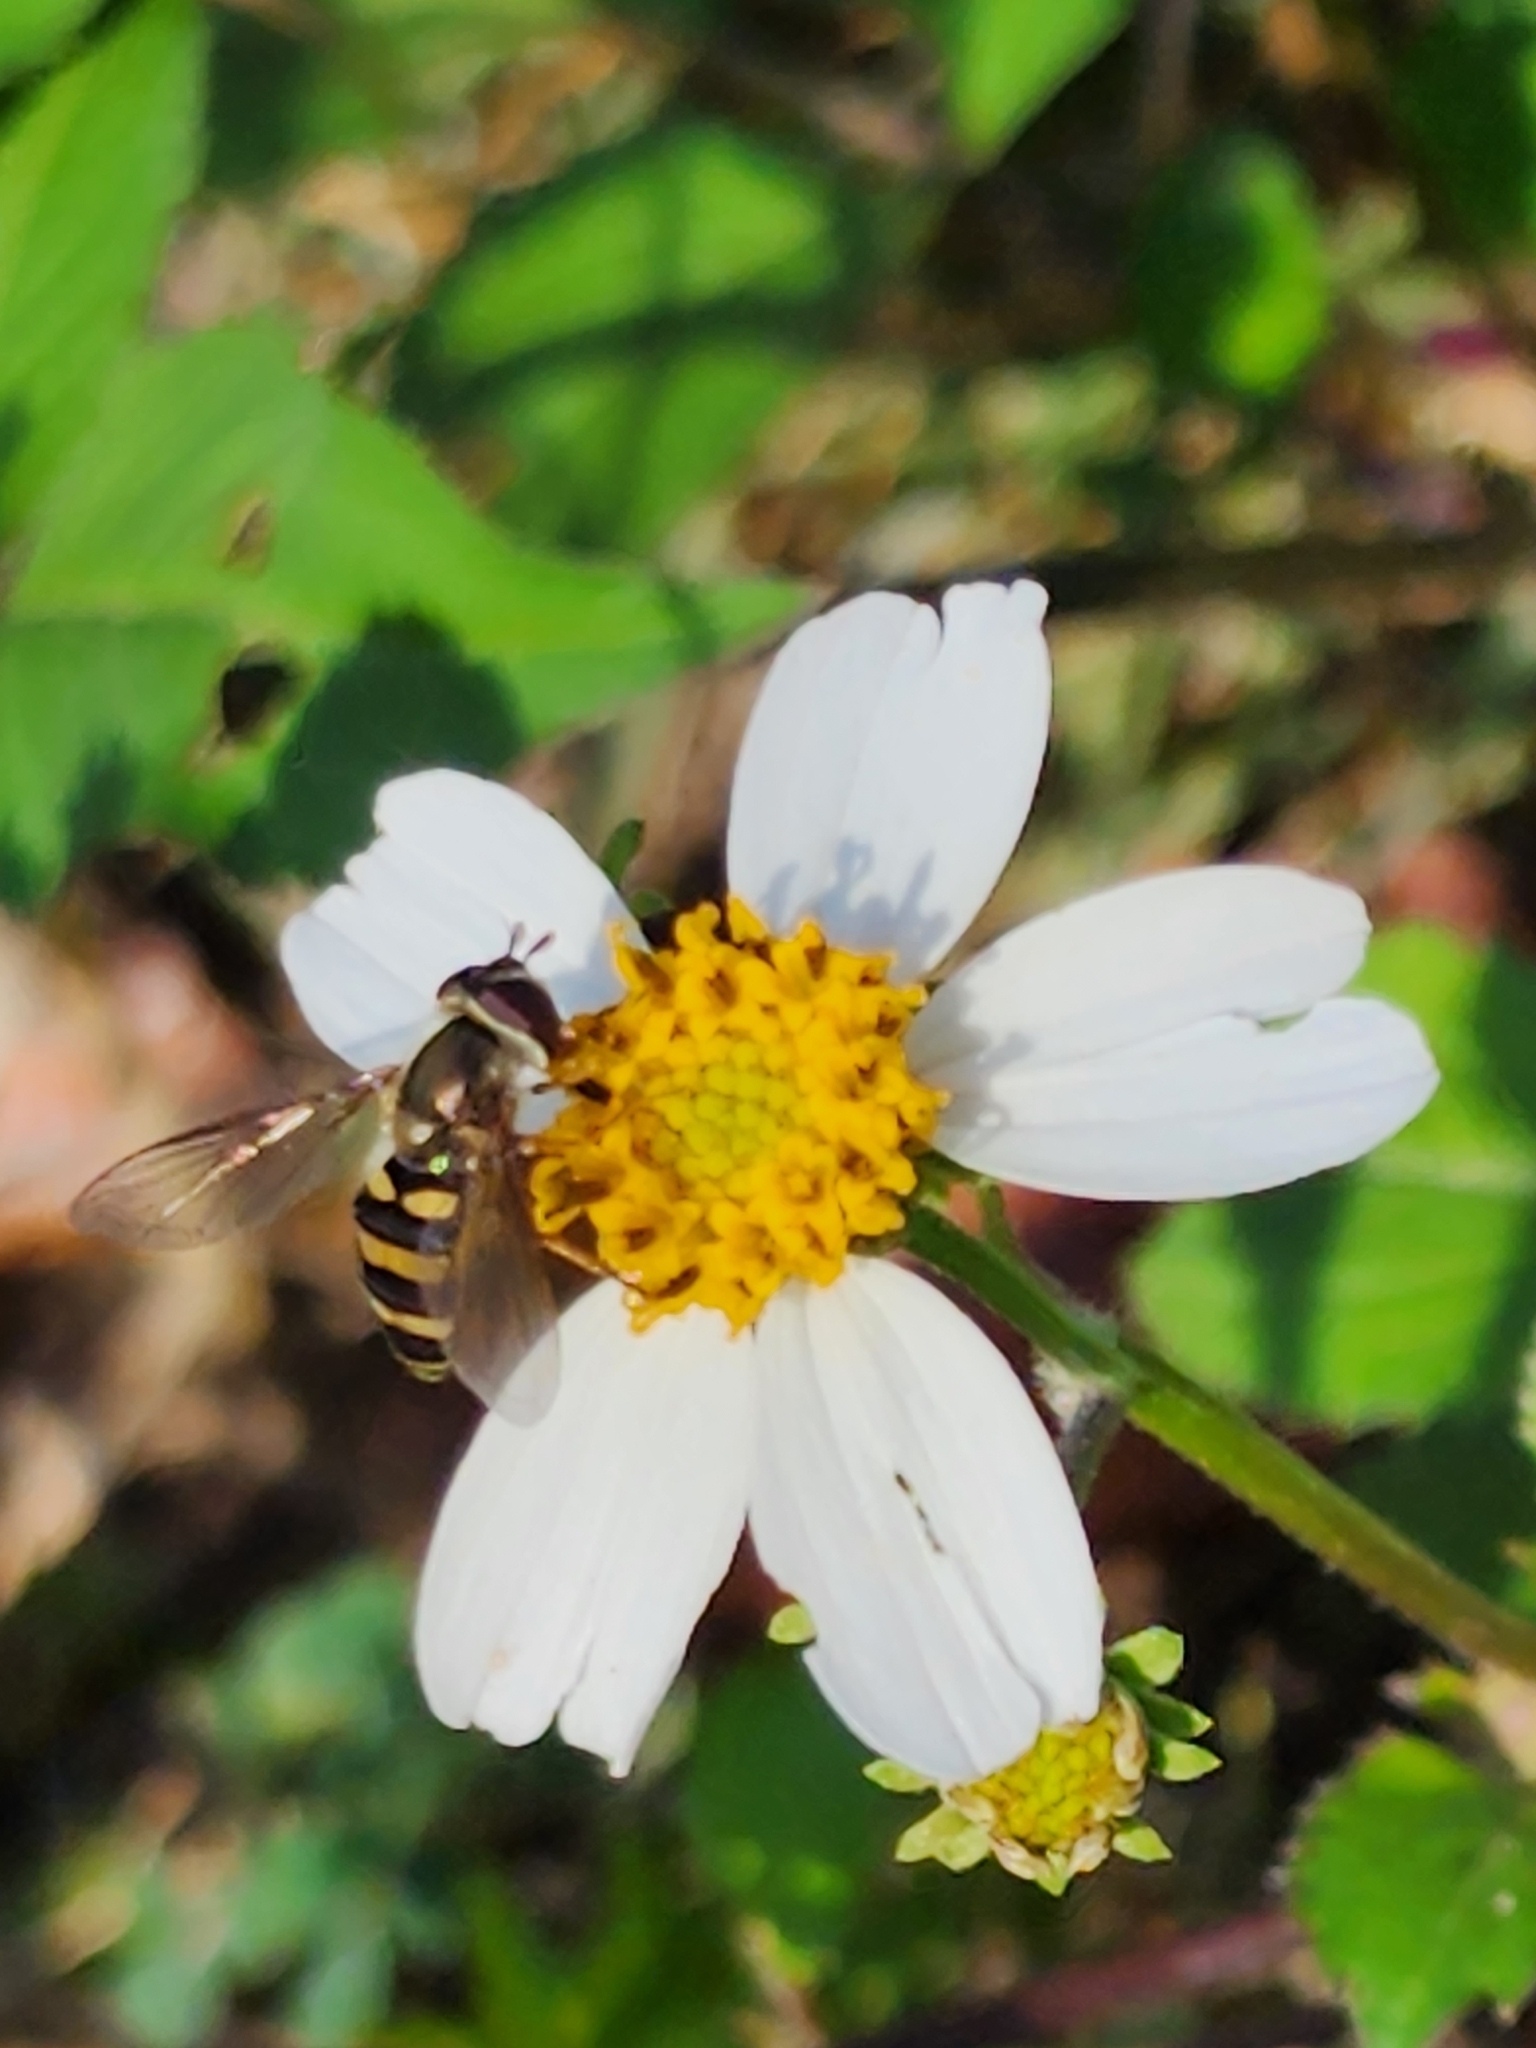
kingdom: Animalia
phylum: Arthropoda
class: Insecta
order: Diptera
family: Syrphidae
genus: Eupeodes
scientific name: Eupeodes
